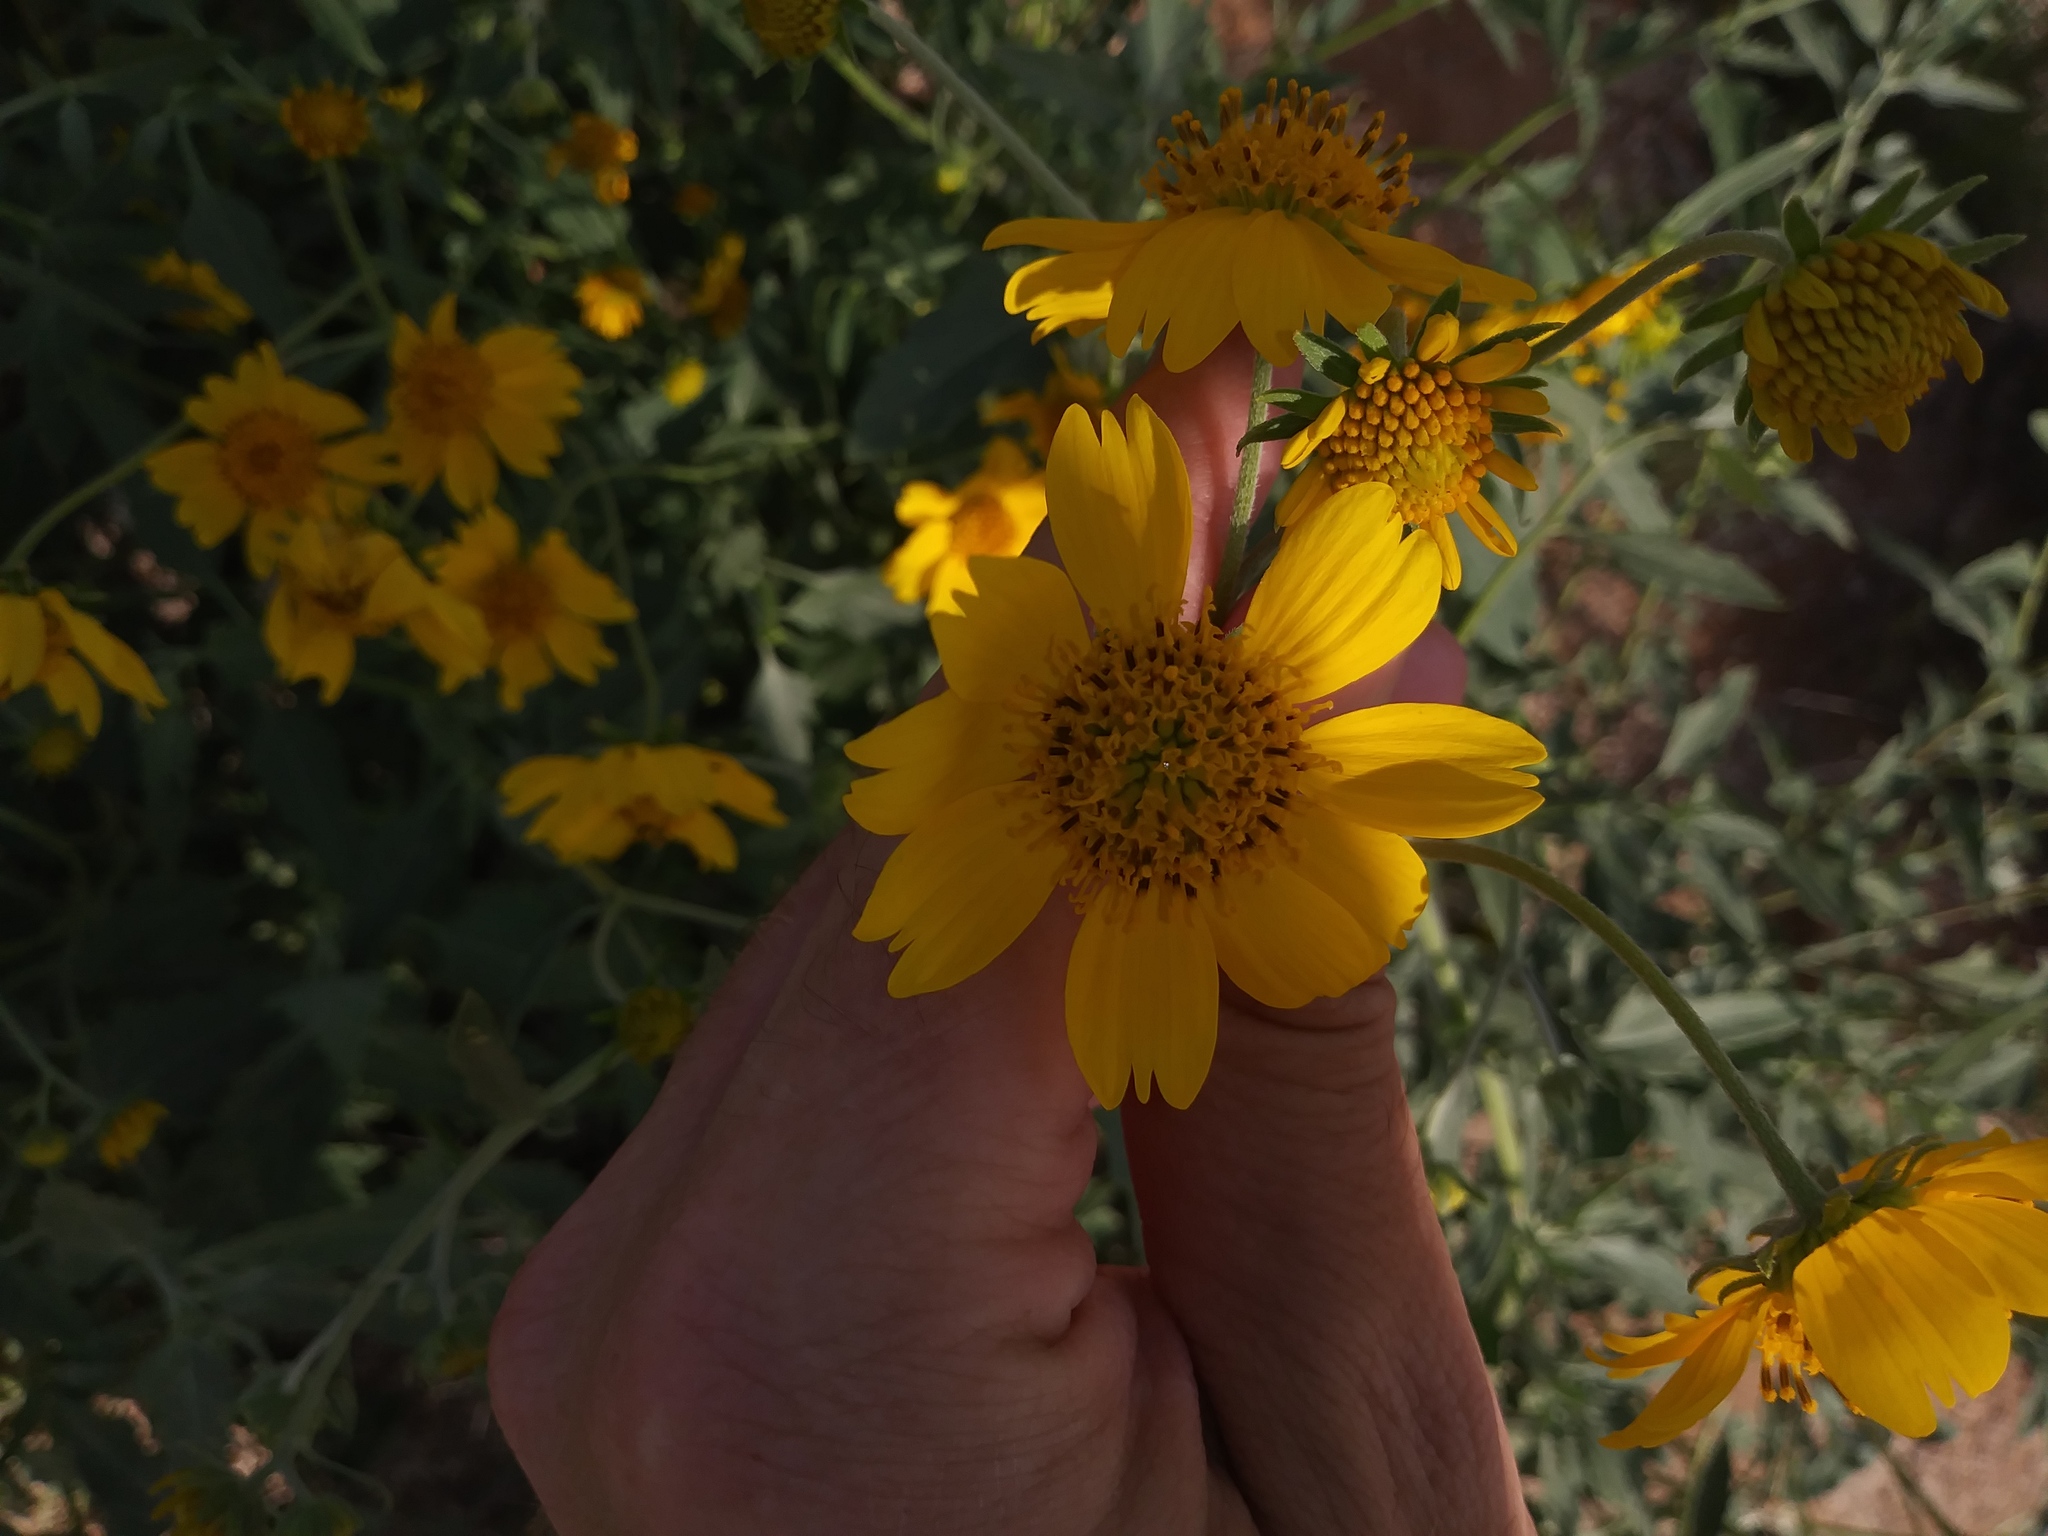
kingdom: Plantae
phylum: Tracheophyta
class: Magnoliopsida
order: Asterales
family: Asteraceae
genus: Verbesina
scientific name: Verbesina encelioides
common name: Golden crownbeard
